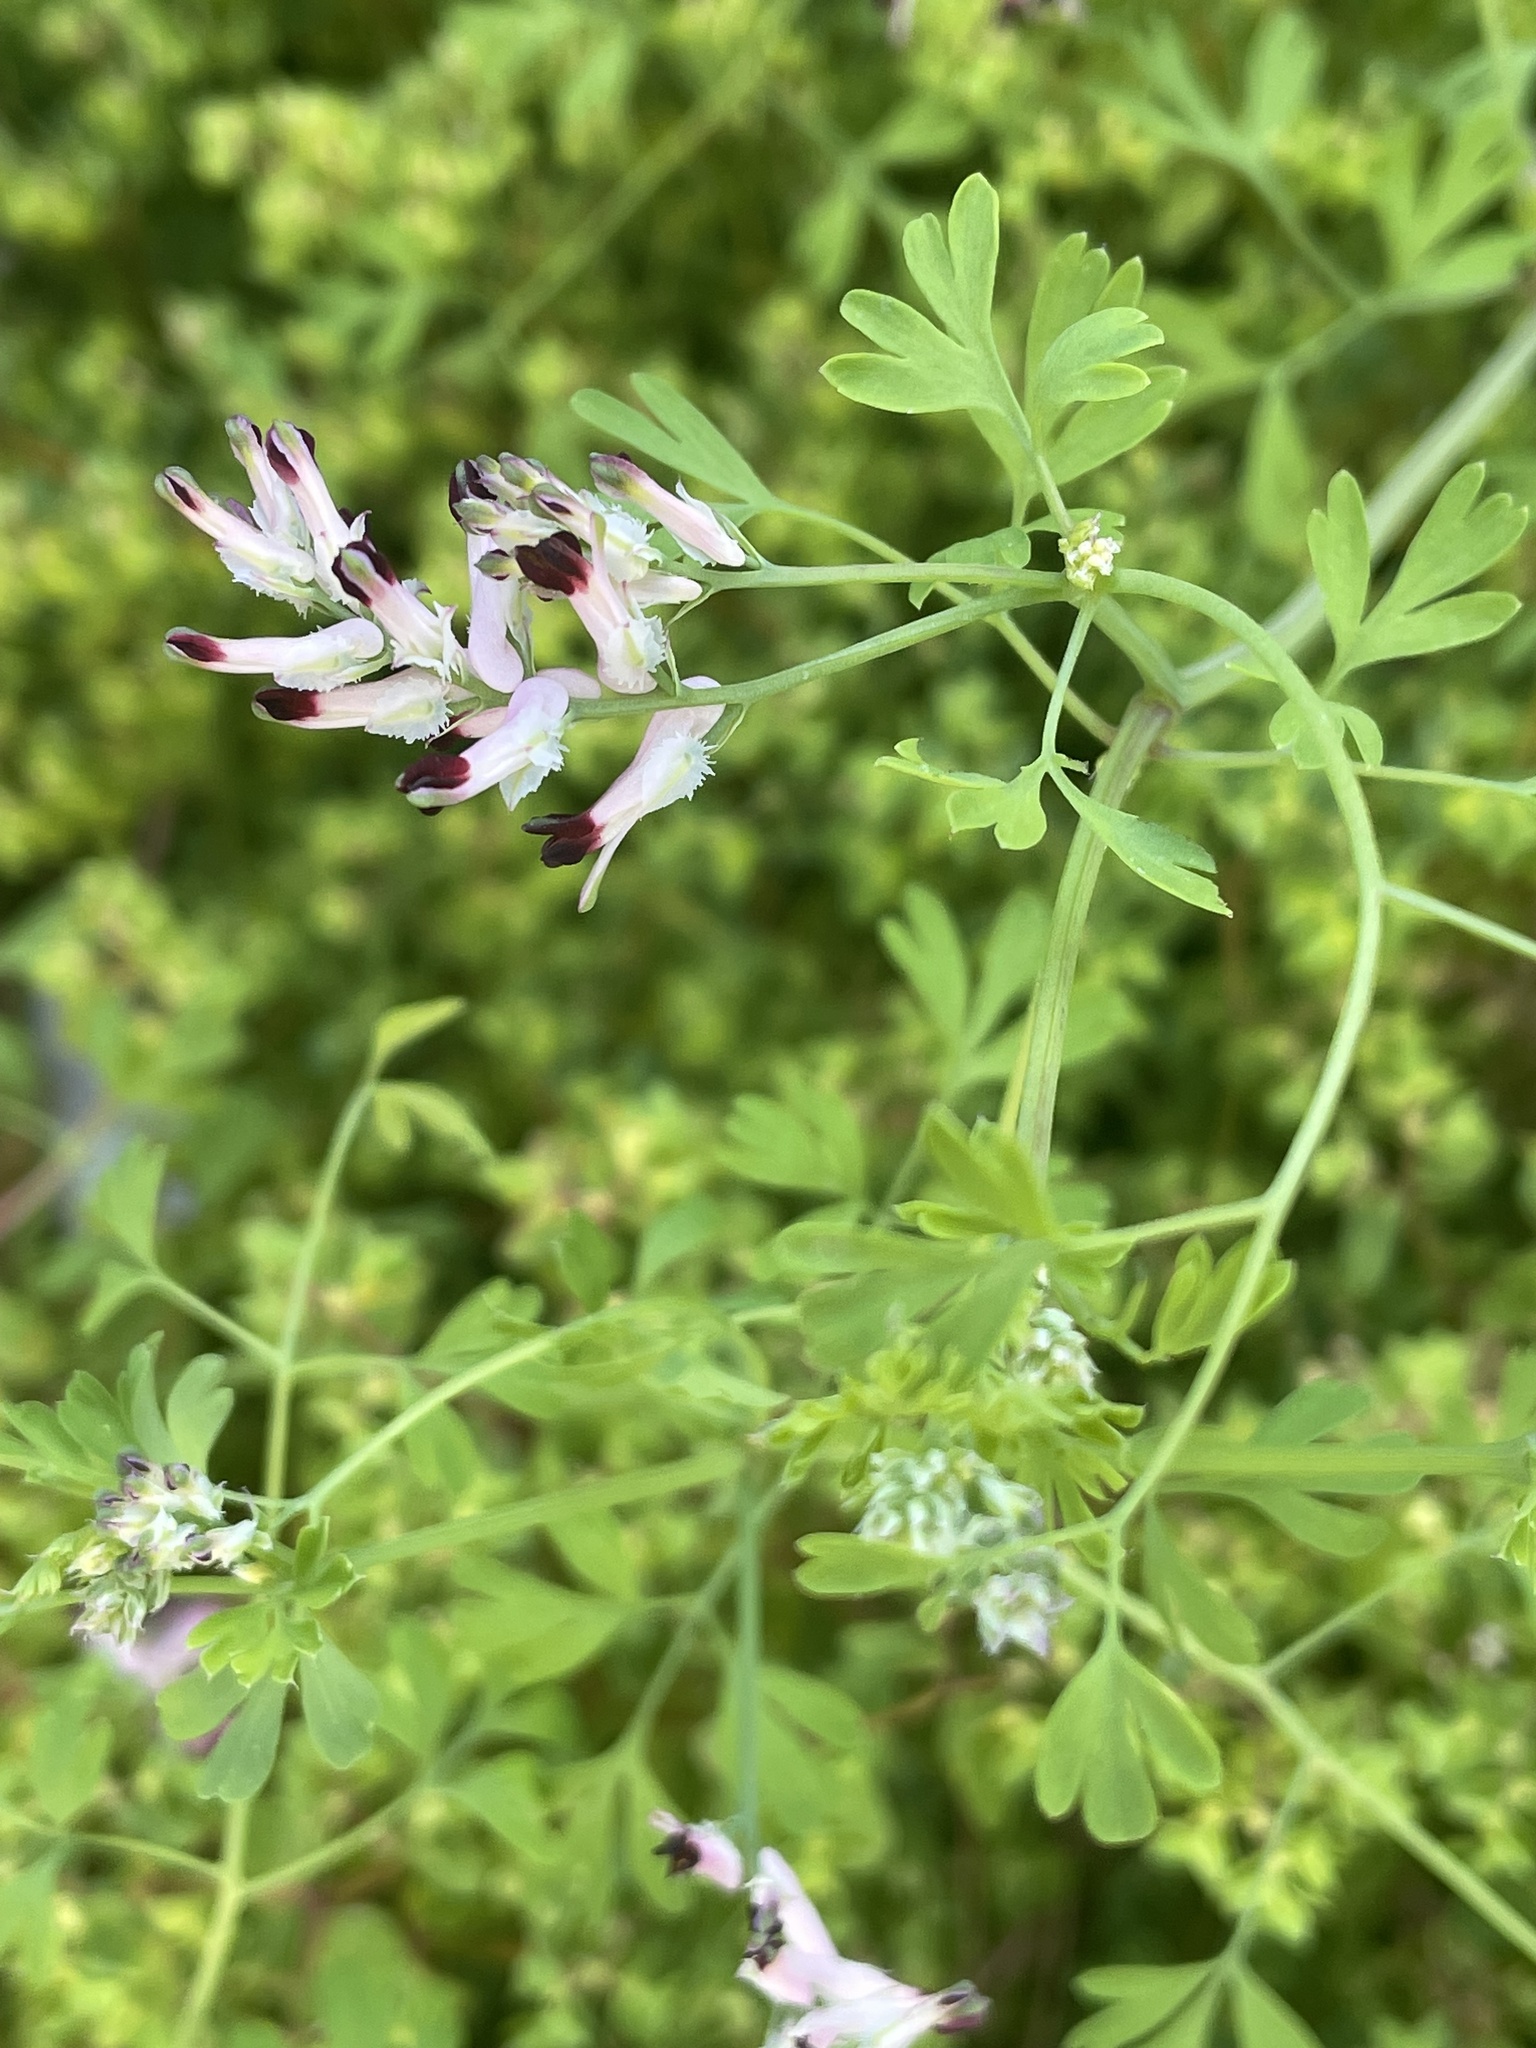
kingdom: Plantae
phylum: Tracheophyta
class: Magnoliopsida
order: Ranunculales
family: Papaveraceae
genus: Fumaria
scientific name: Fumaria capreolata
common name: White ramping-fumitory
